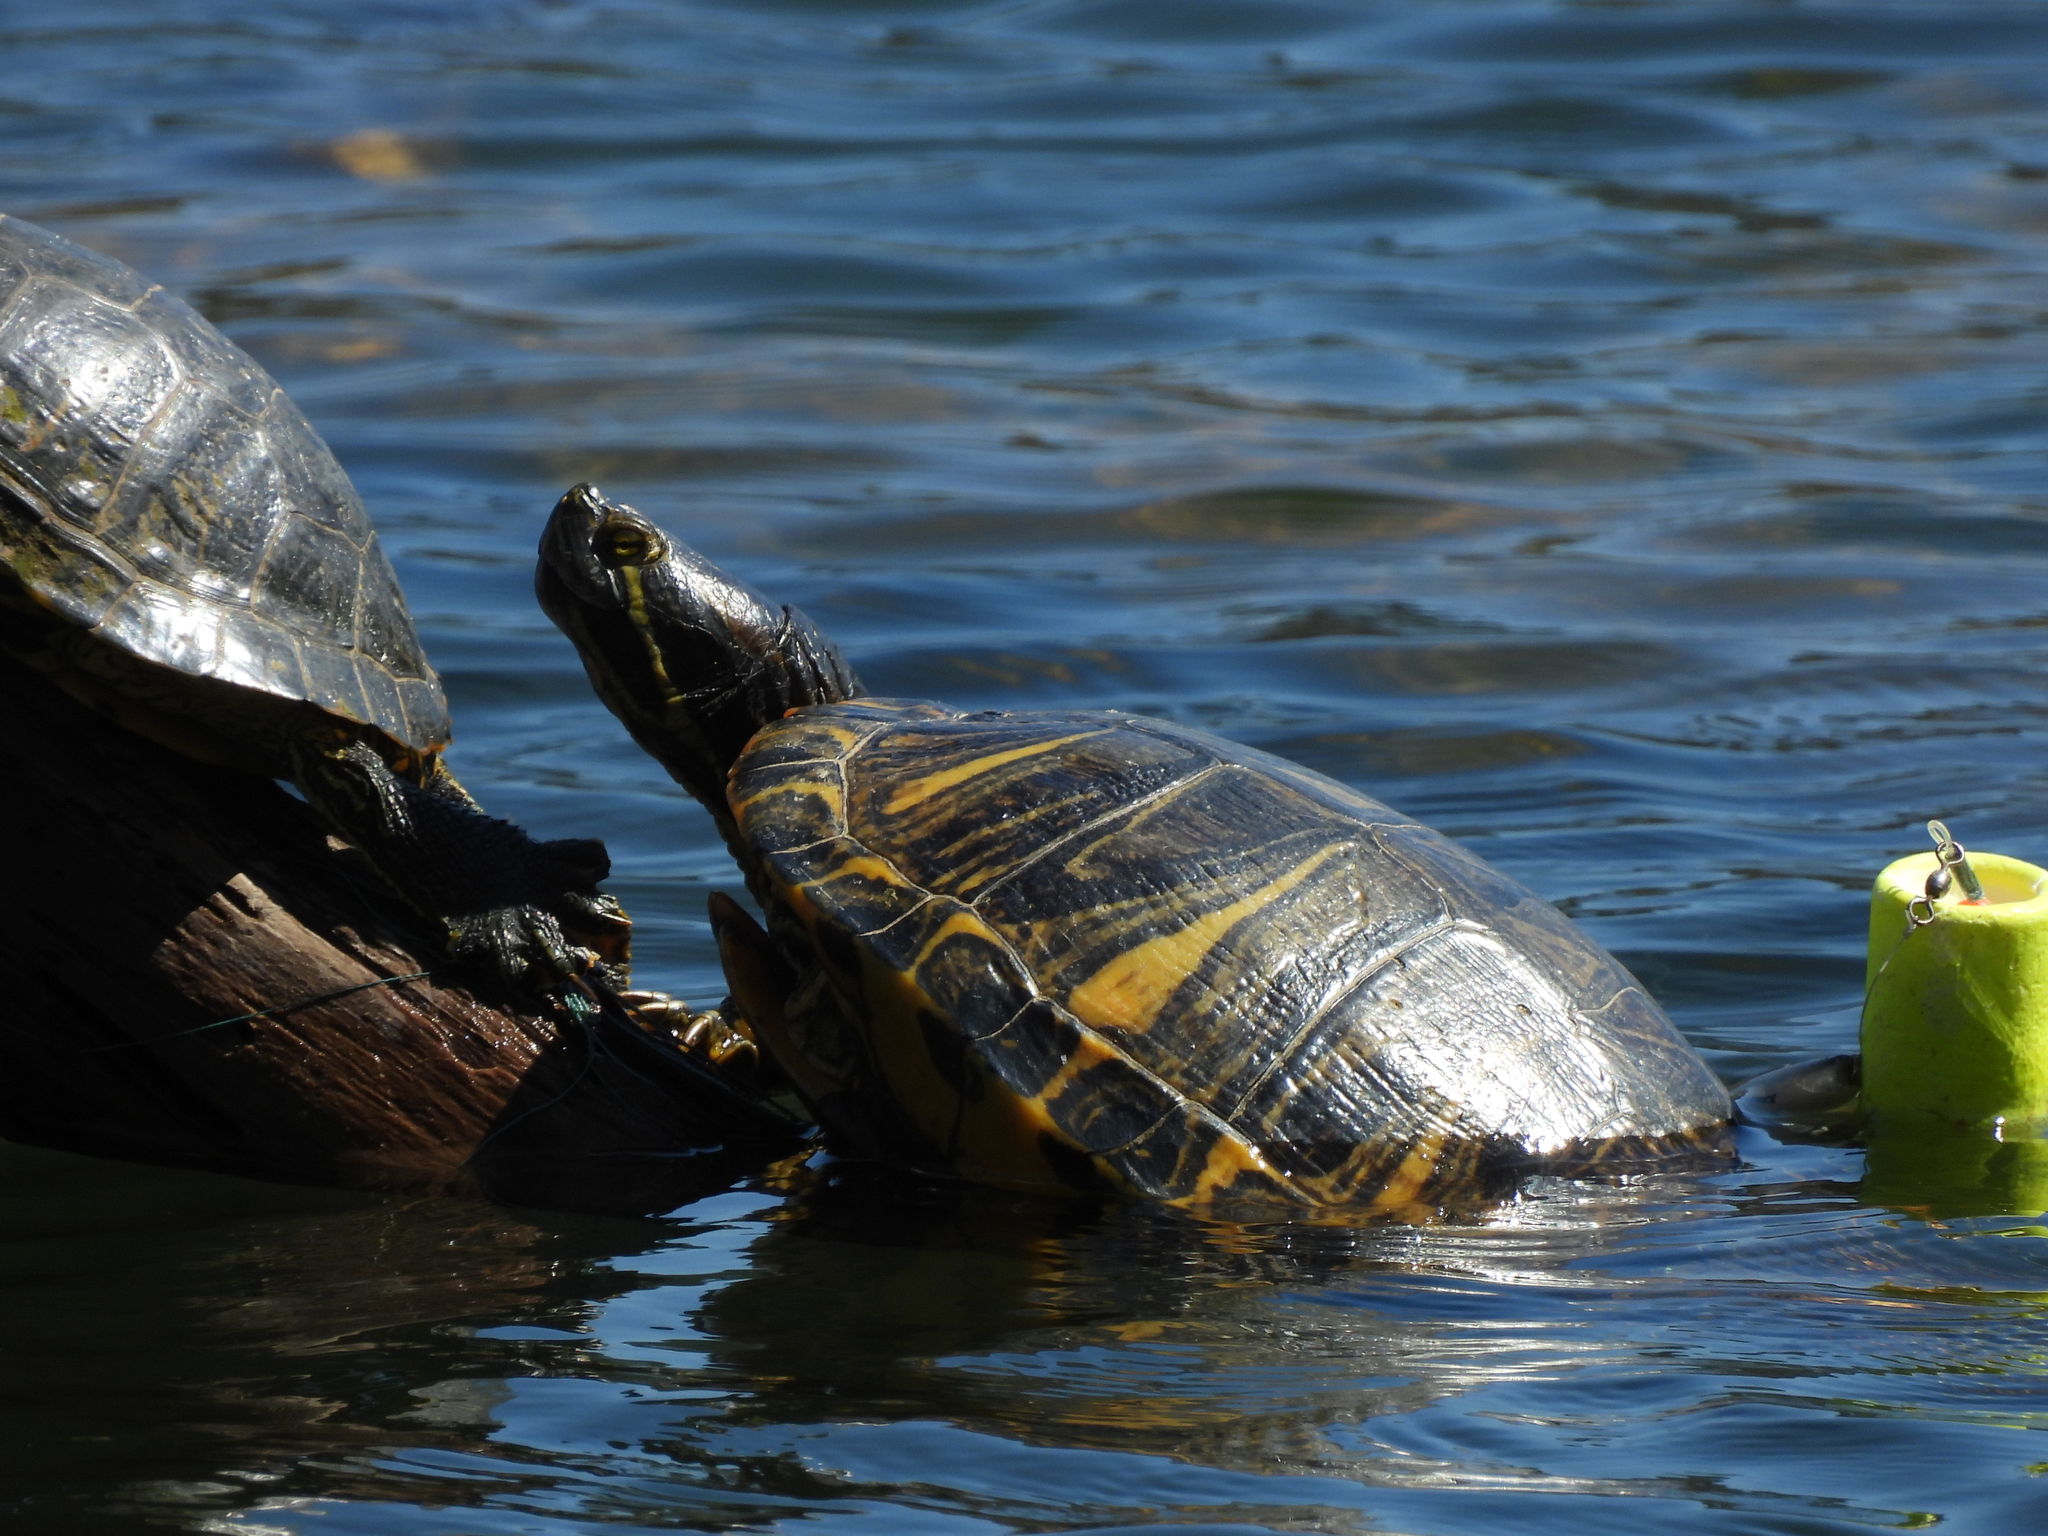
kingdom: Animalia
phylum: Chordata
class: Testudines
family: Emydidae
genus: Trachemys
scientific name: Trachemys scripta
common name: Slider
